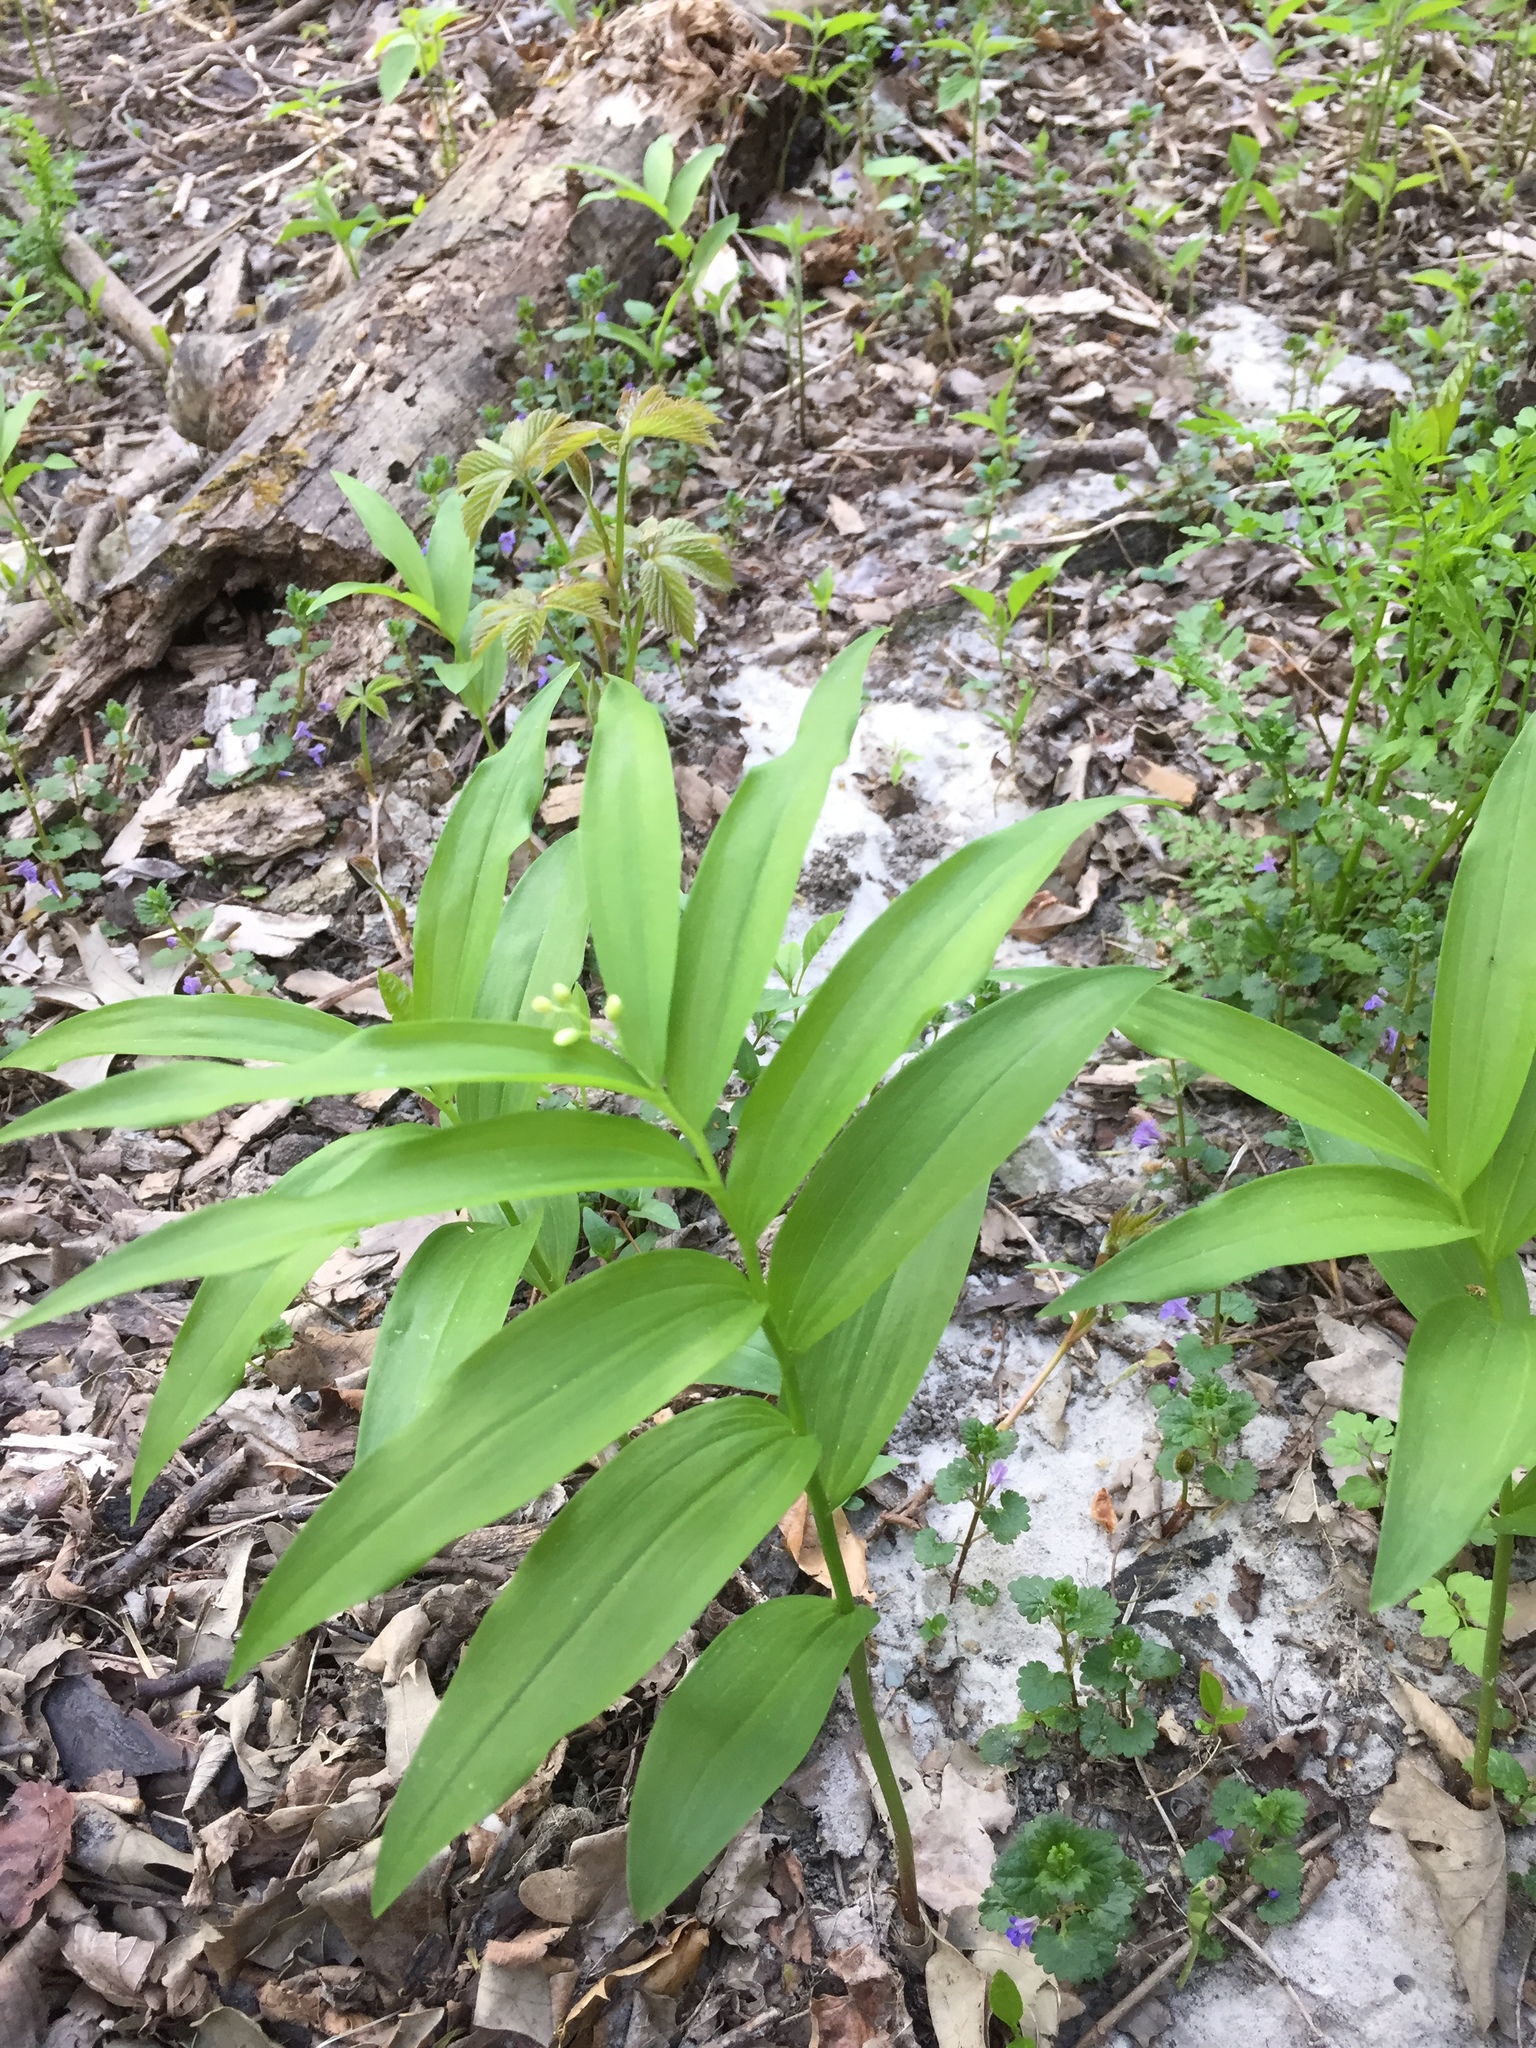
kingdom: Plantae
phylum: Tracheophyta
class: Liliopsida
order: Asparagales
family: Asparagaceae
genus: Maianthemum
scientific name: Maianthemum stellatum
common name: Little false solomon's seal
